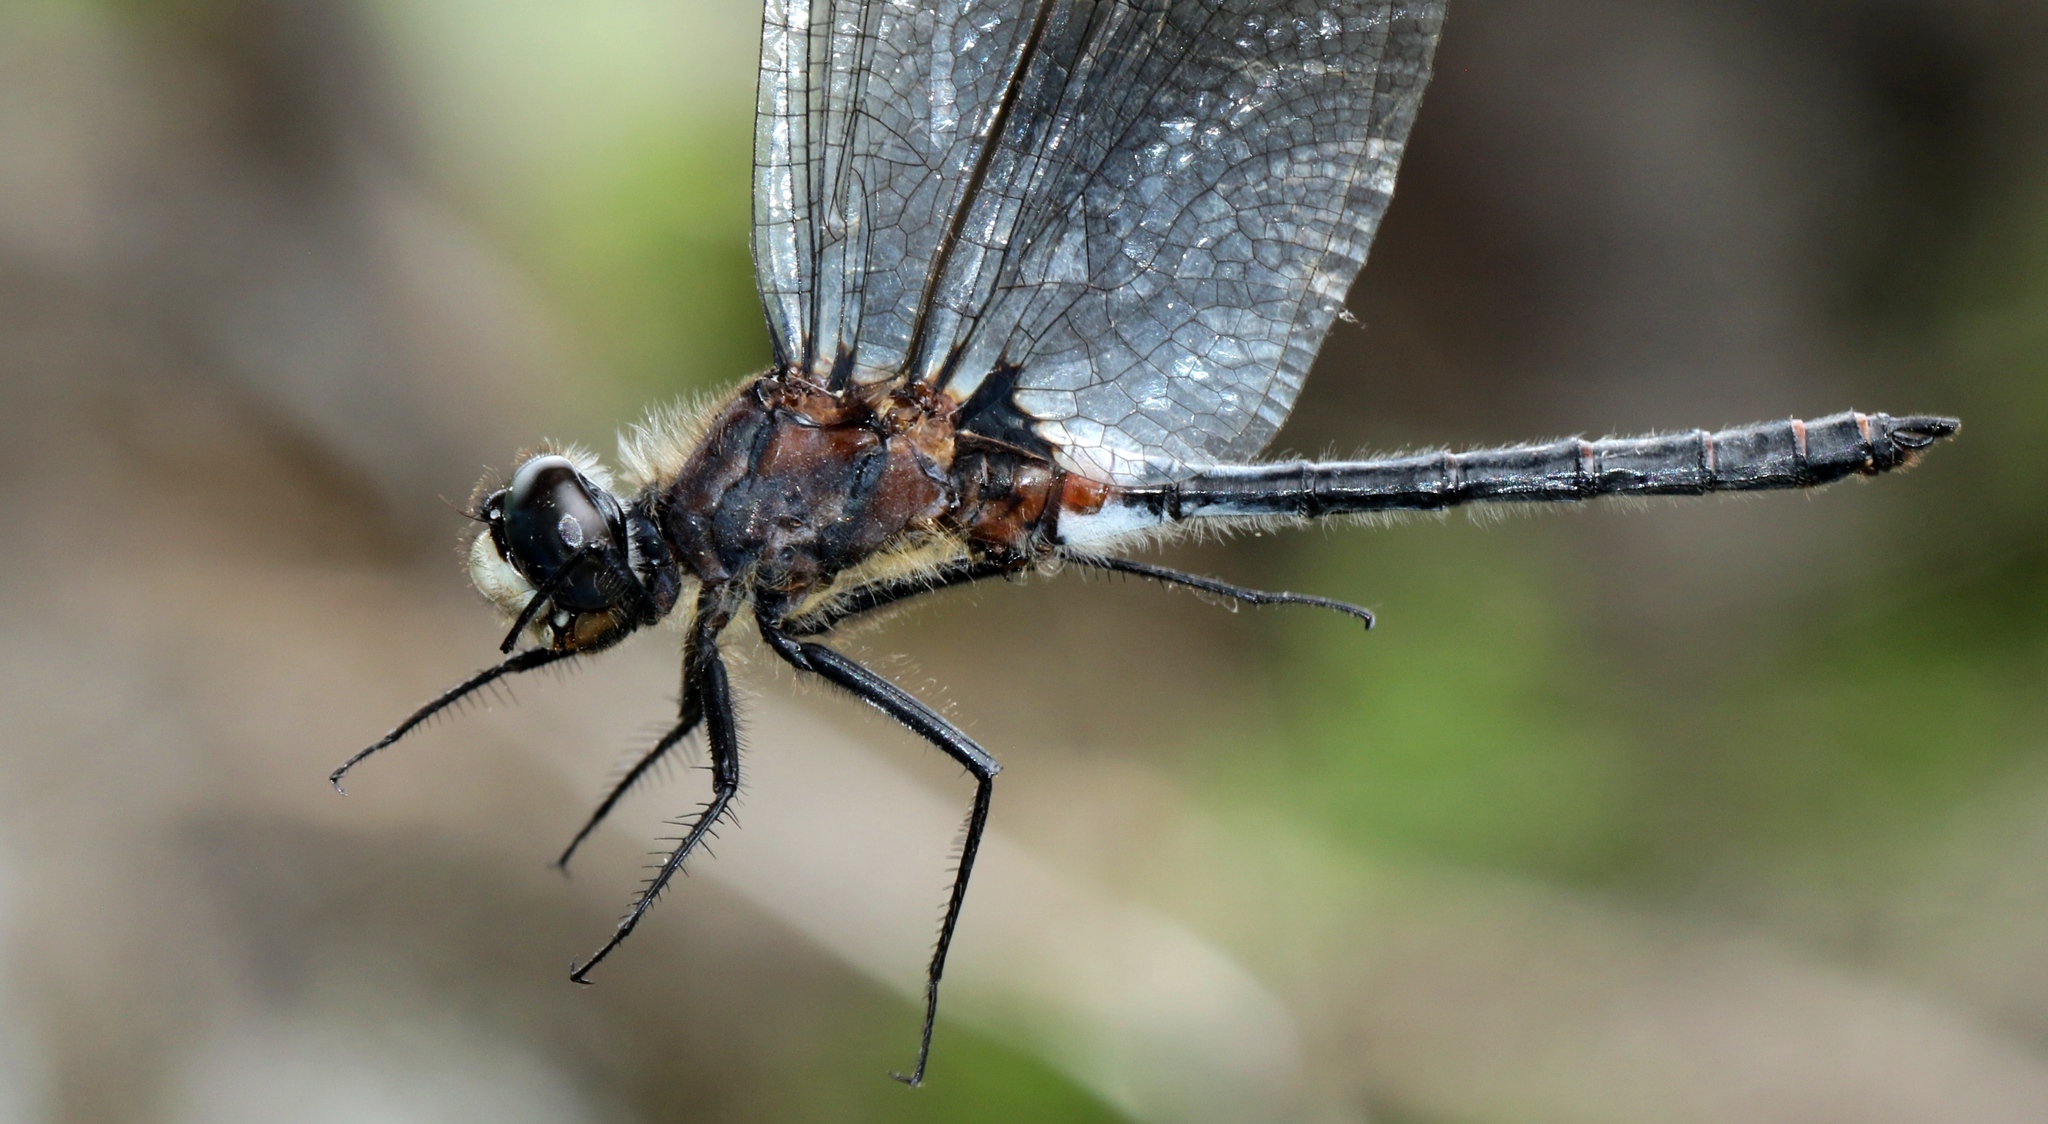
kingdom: Animalia
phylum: Arthropoda
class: Insecta
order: Odonata
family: Libellulidae
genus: Leucorrhinia
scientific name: Leucorrhinia proxima
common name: Belted whiteface
